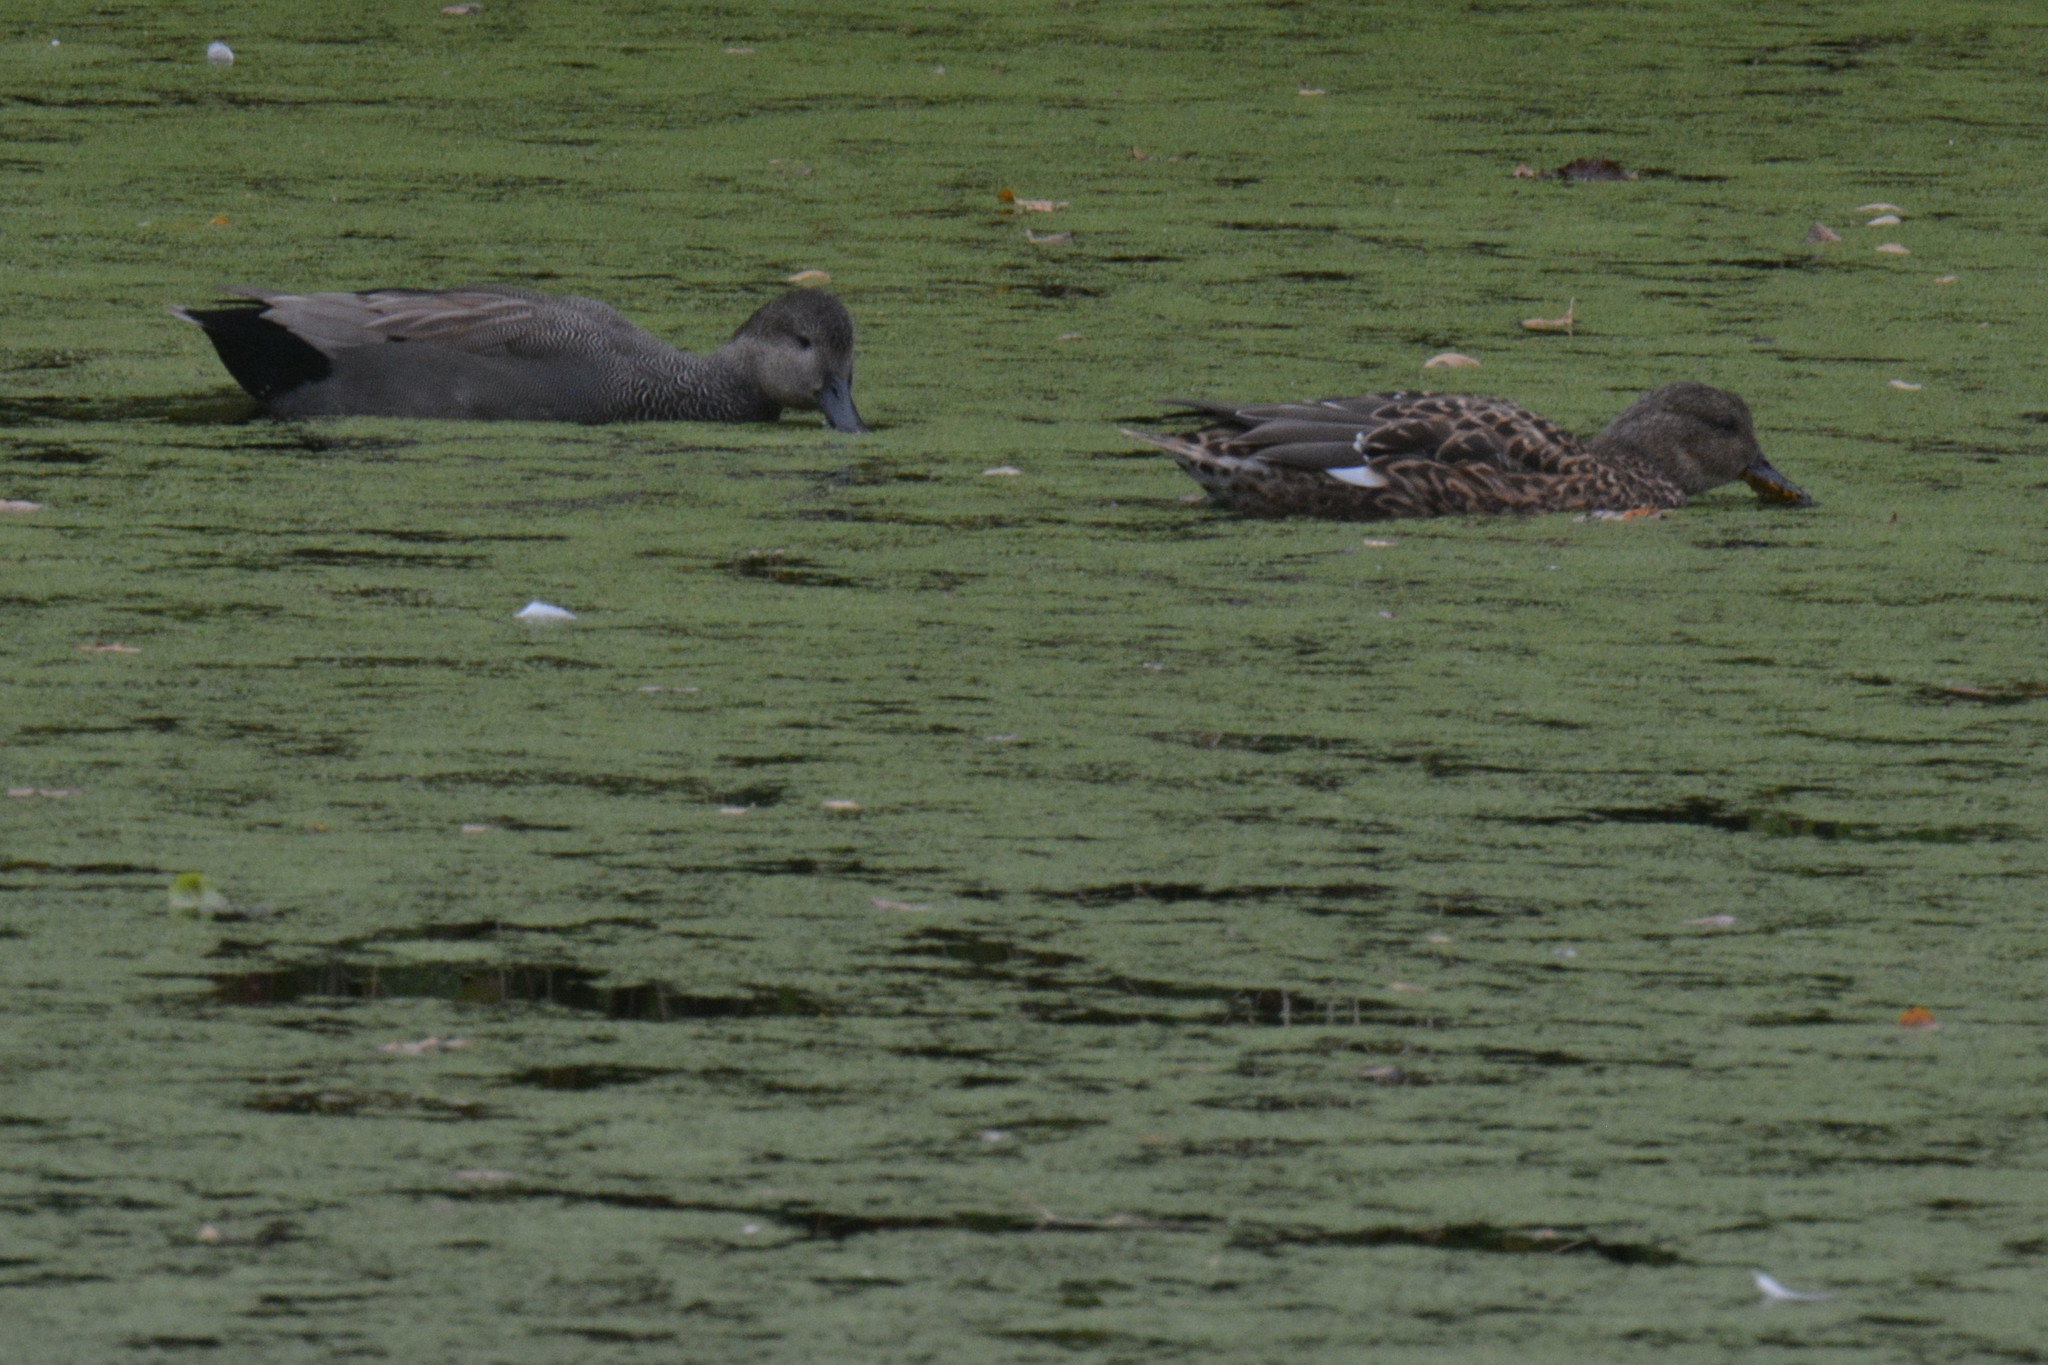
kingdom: Animalia
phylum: Chordata
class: Aves
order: Anseriformes
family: Anatidae
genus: Mareca
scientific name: Mareca strepera
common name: Gadwall
